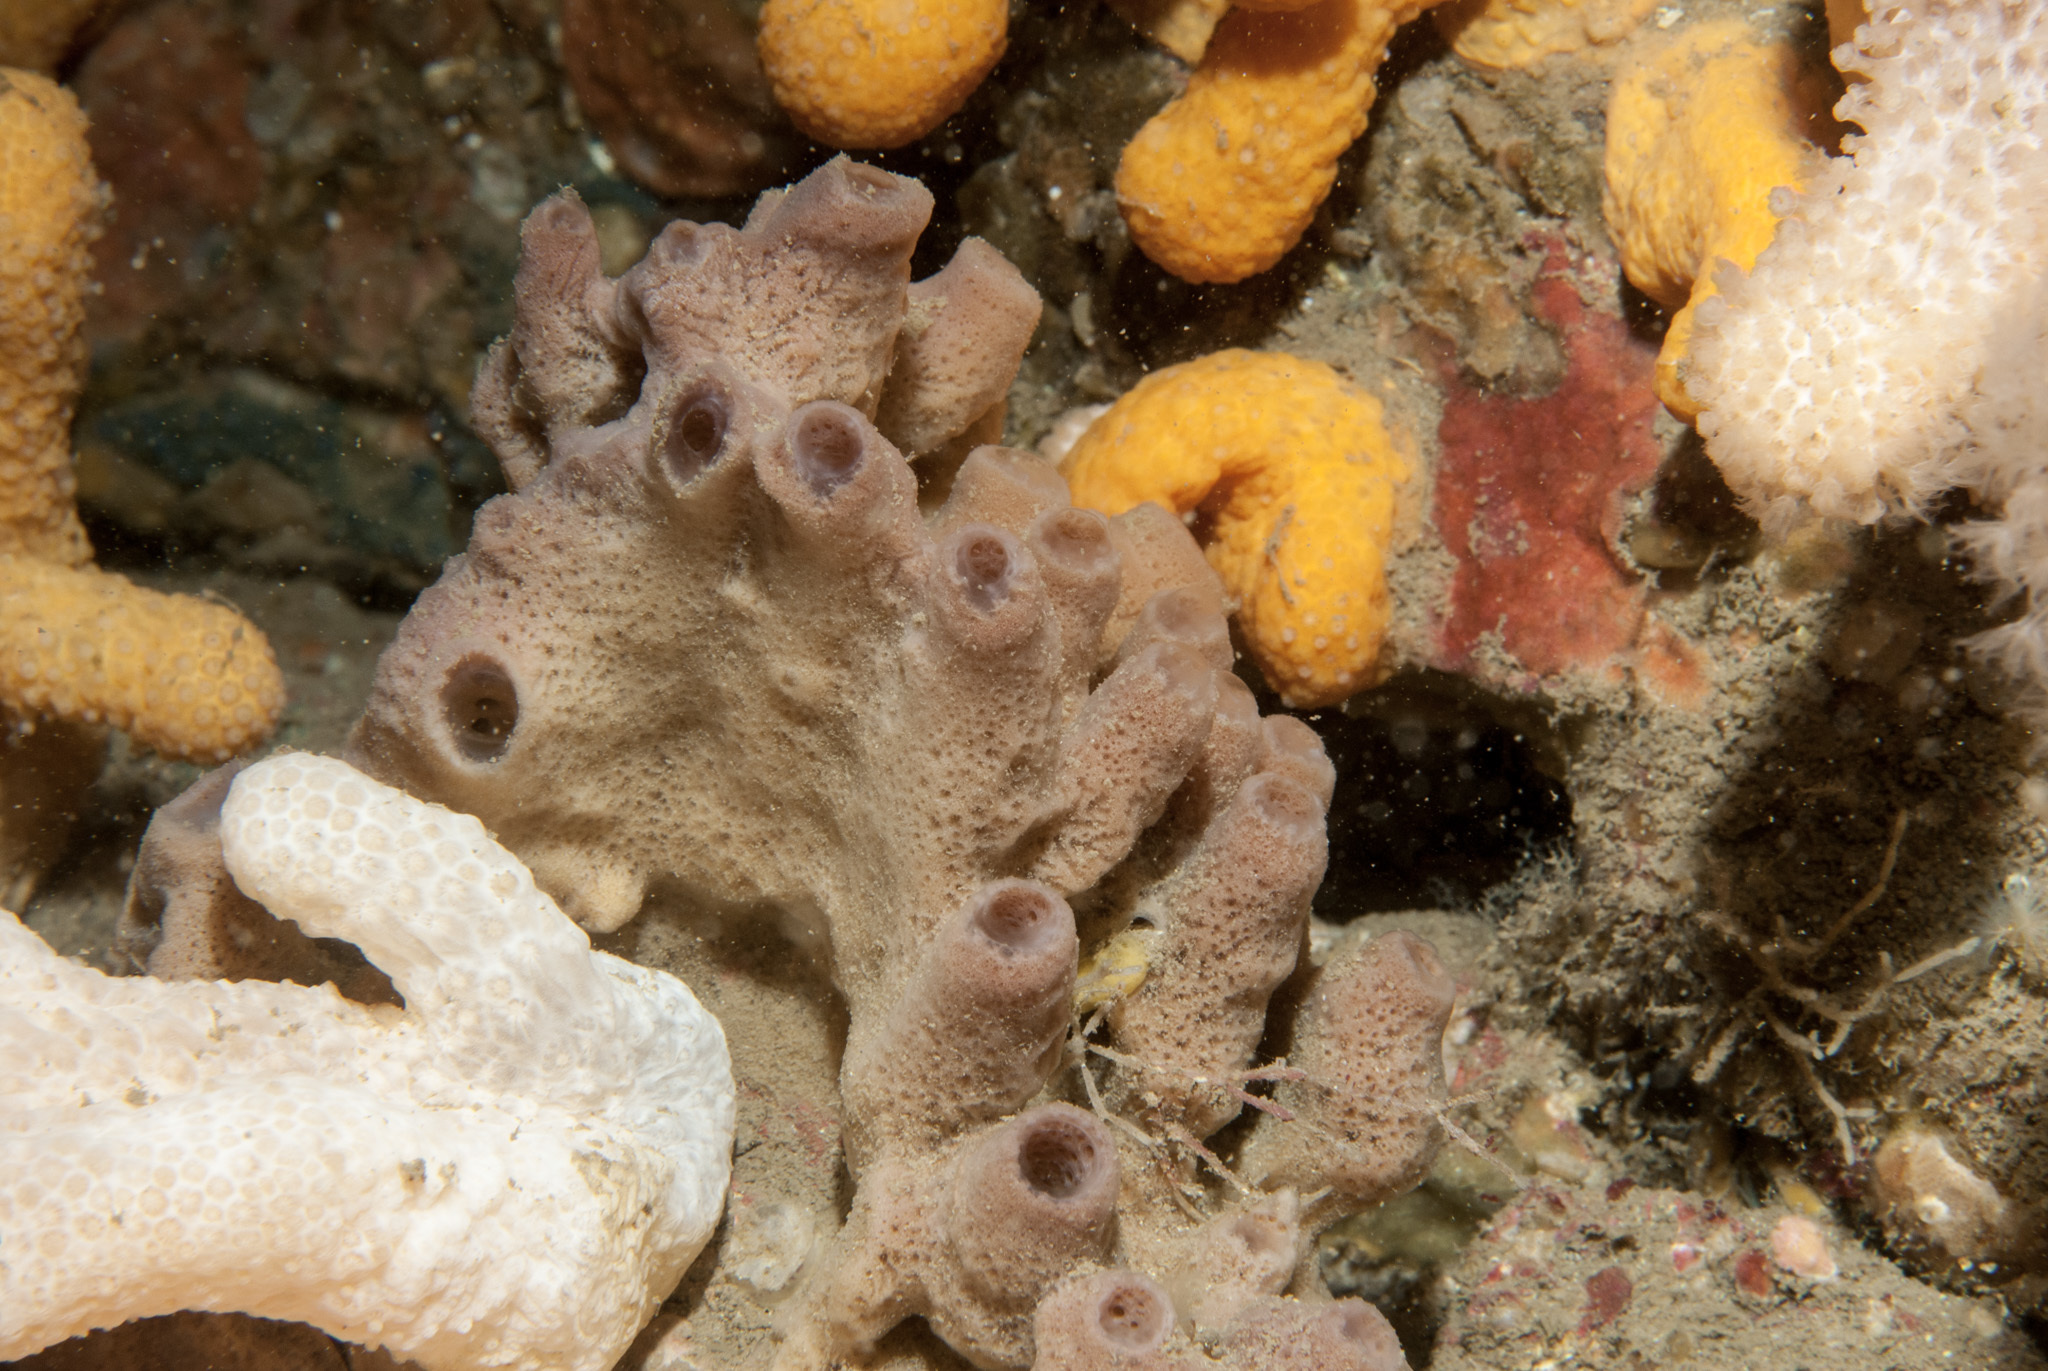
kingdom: Animalia
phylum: Porifera
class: Demospongiae
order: Haplosclerida
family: Chalinidae
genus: Haliclona
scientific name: Haliclona viscosa
